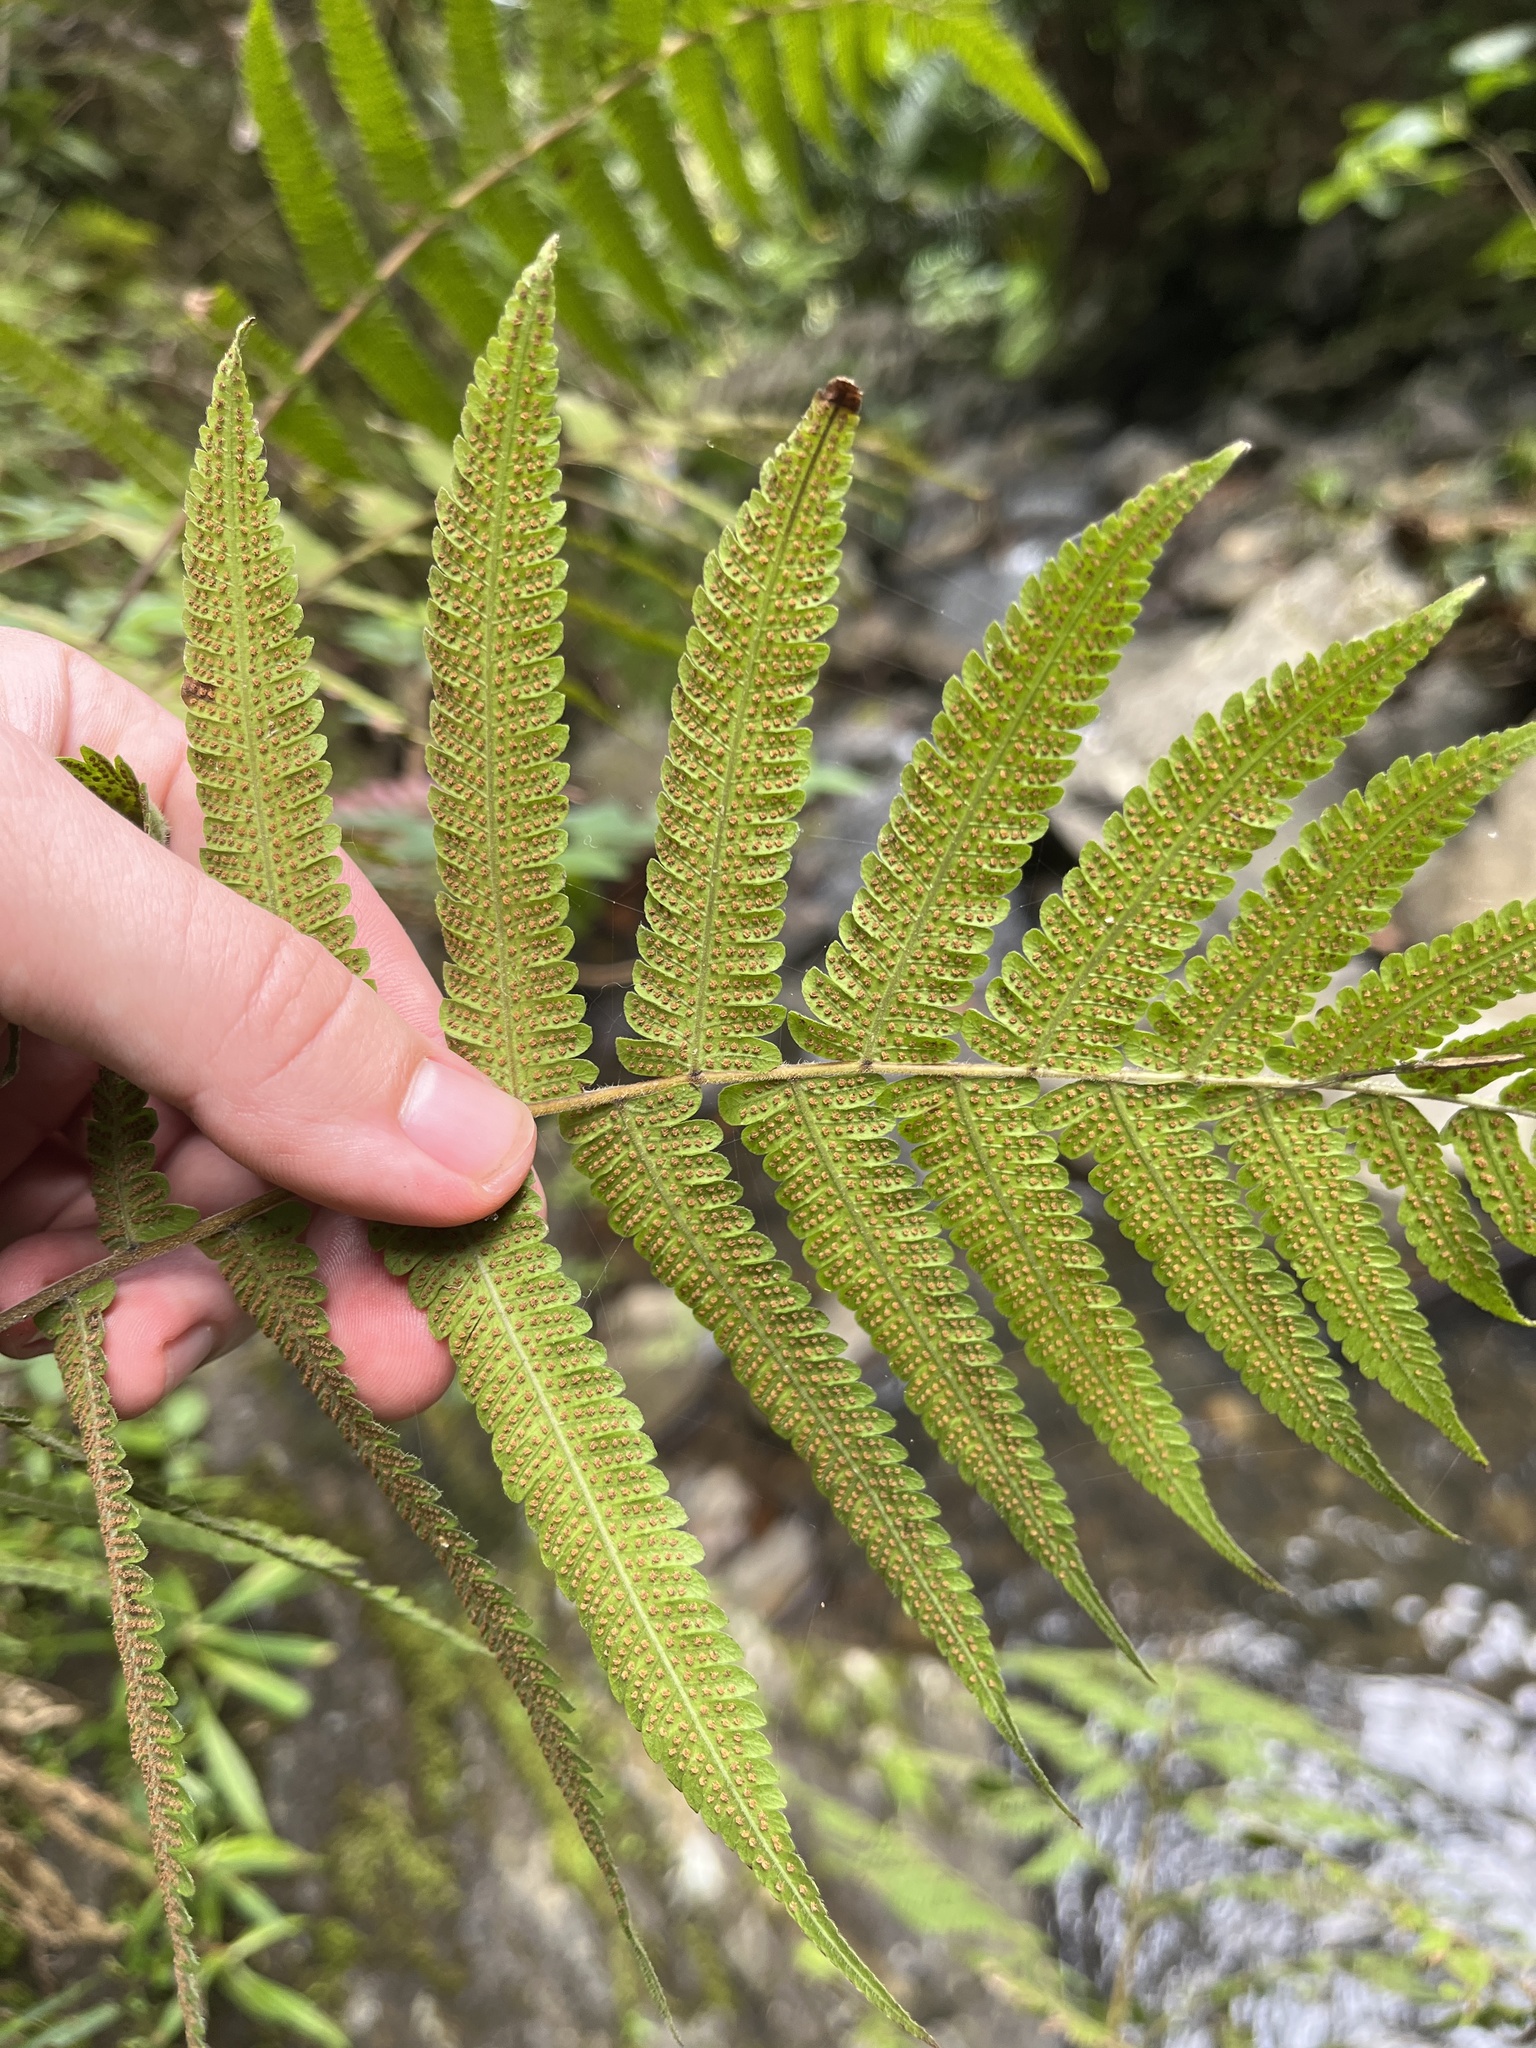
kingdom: Plantae
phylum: Tracheophyta
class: Polypodiopsida
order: Polypodiales
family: Thelypteridaceae
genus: Christella
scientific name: Christella dentata
